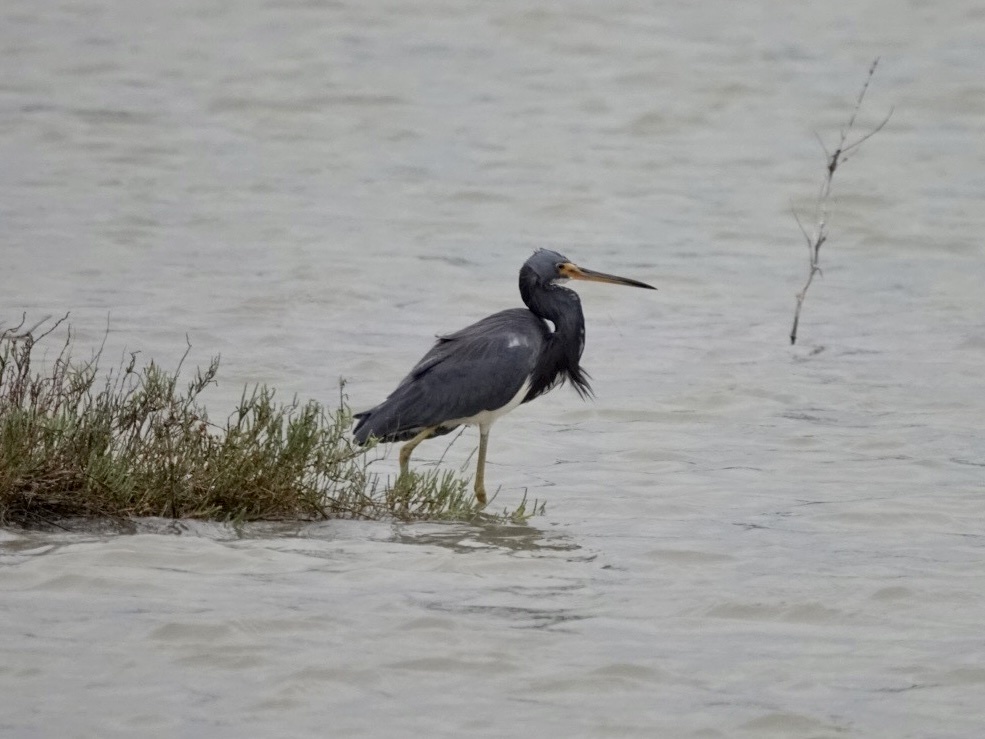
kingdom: Animalia
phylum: Chordata
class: Aves
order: Pelecaniformes
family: Ardeidae
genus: Egretta
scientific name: Egretta tricolor
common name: Tricolored heron
